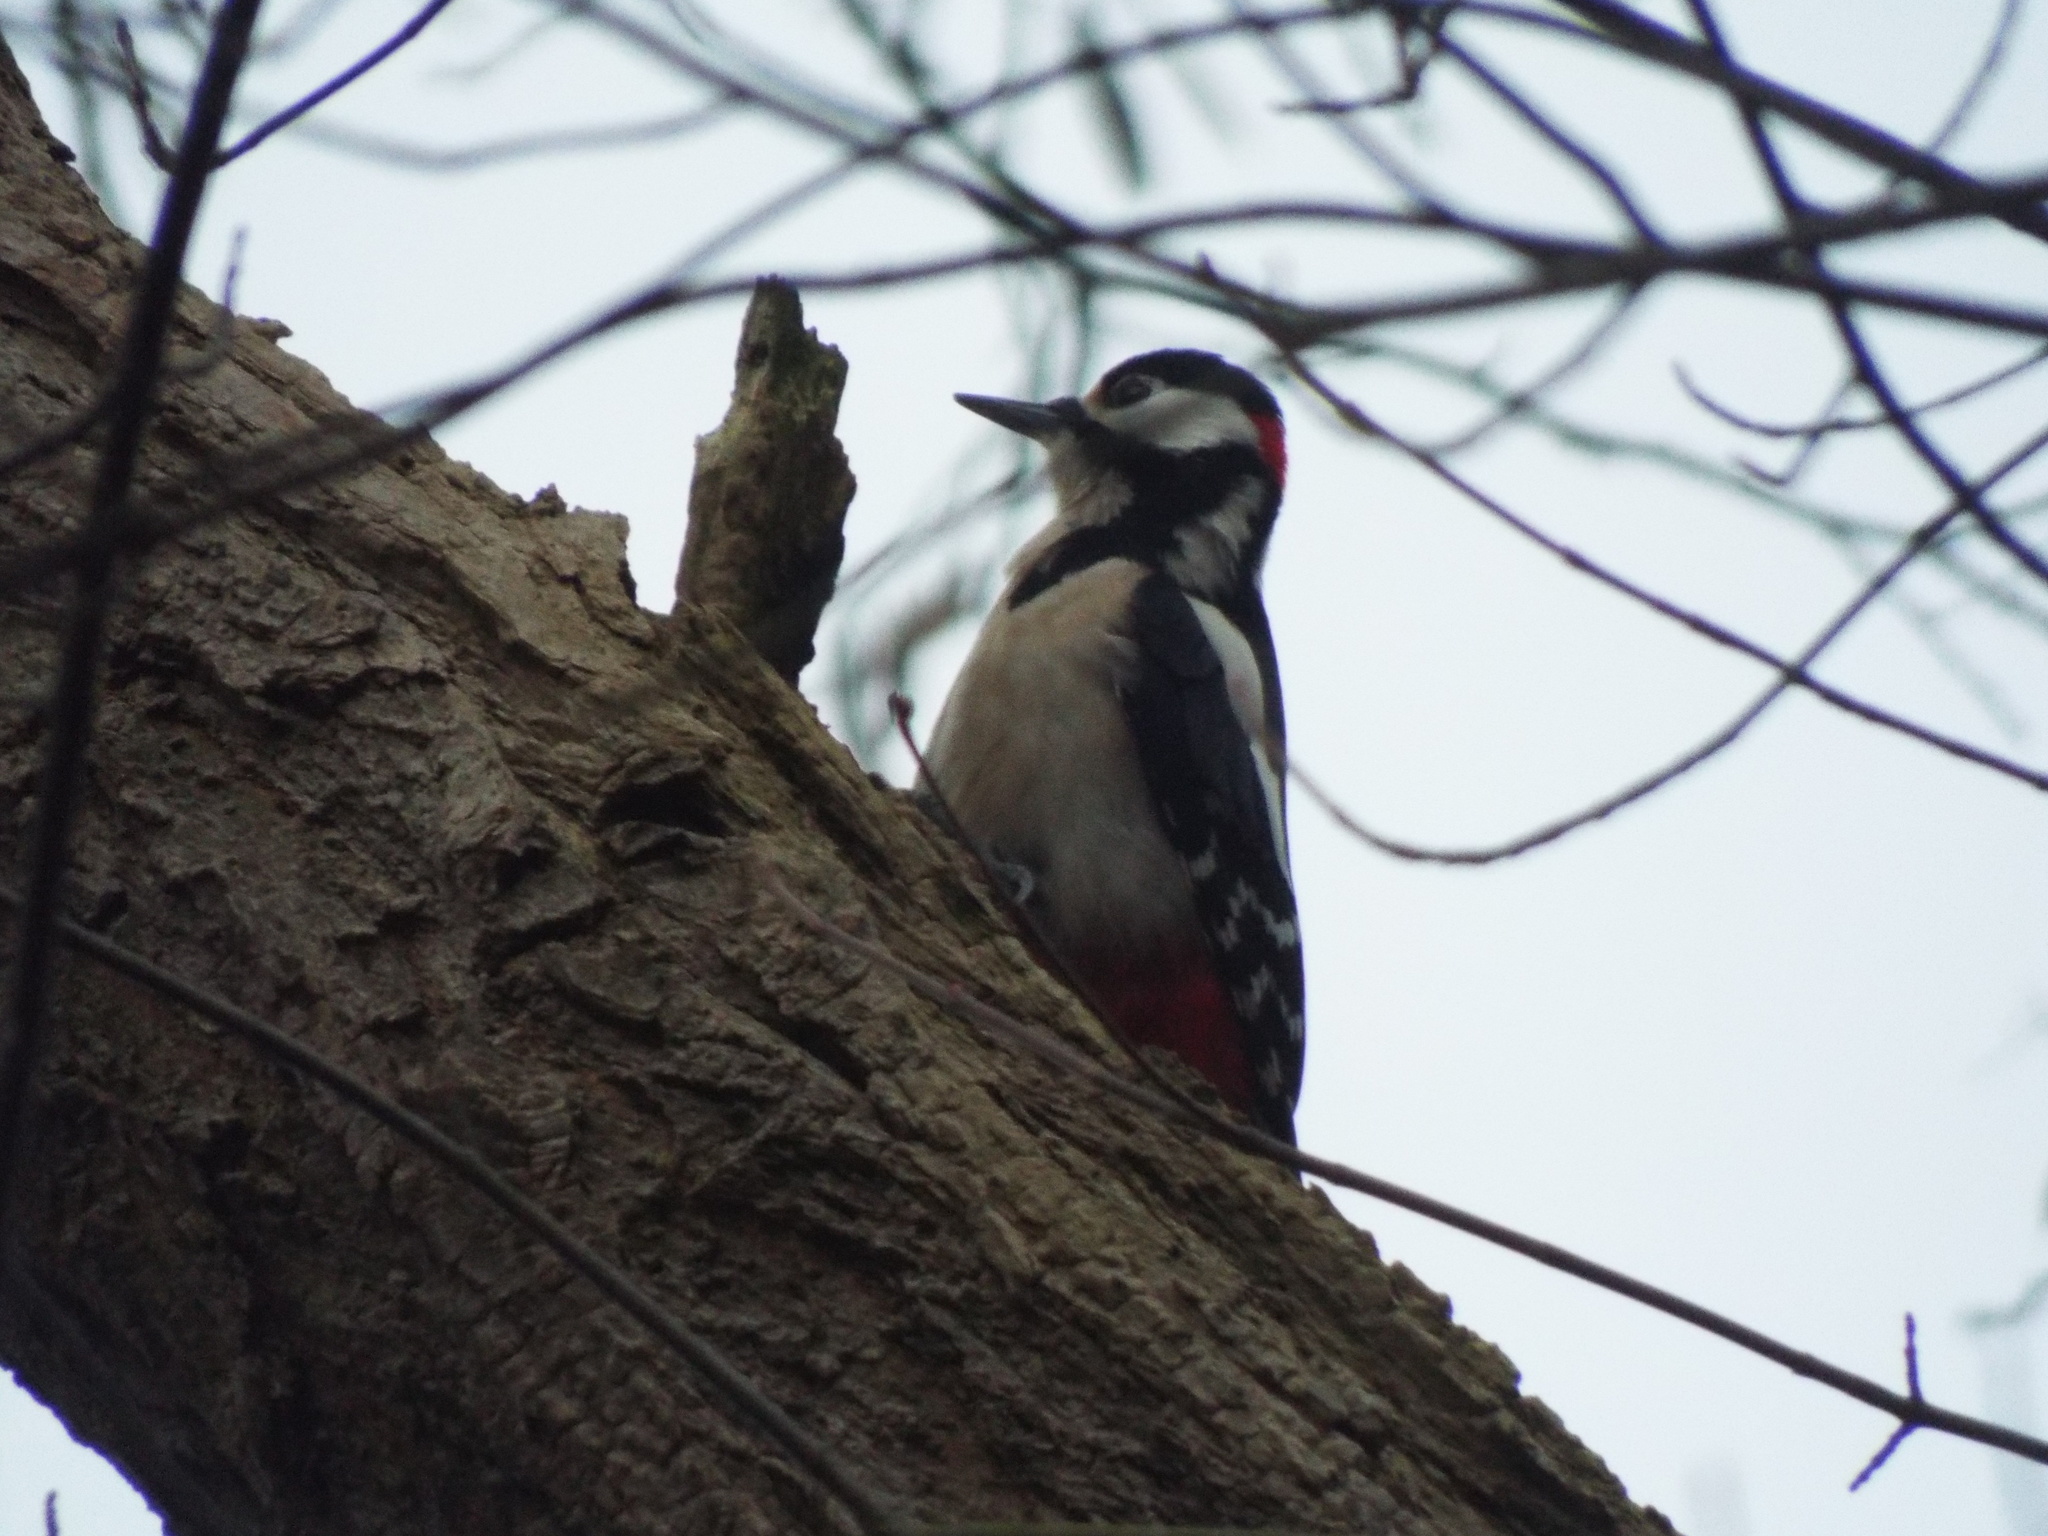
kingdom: Animalia
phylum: Chordata
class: Aves
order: Piciformes
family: Picidae
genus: Dendrocopos
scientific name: Dendrocopos major
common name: Great spotted woodpecker
